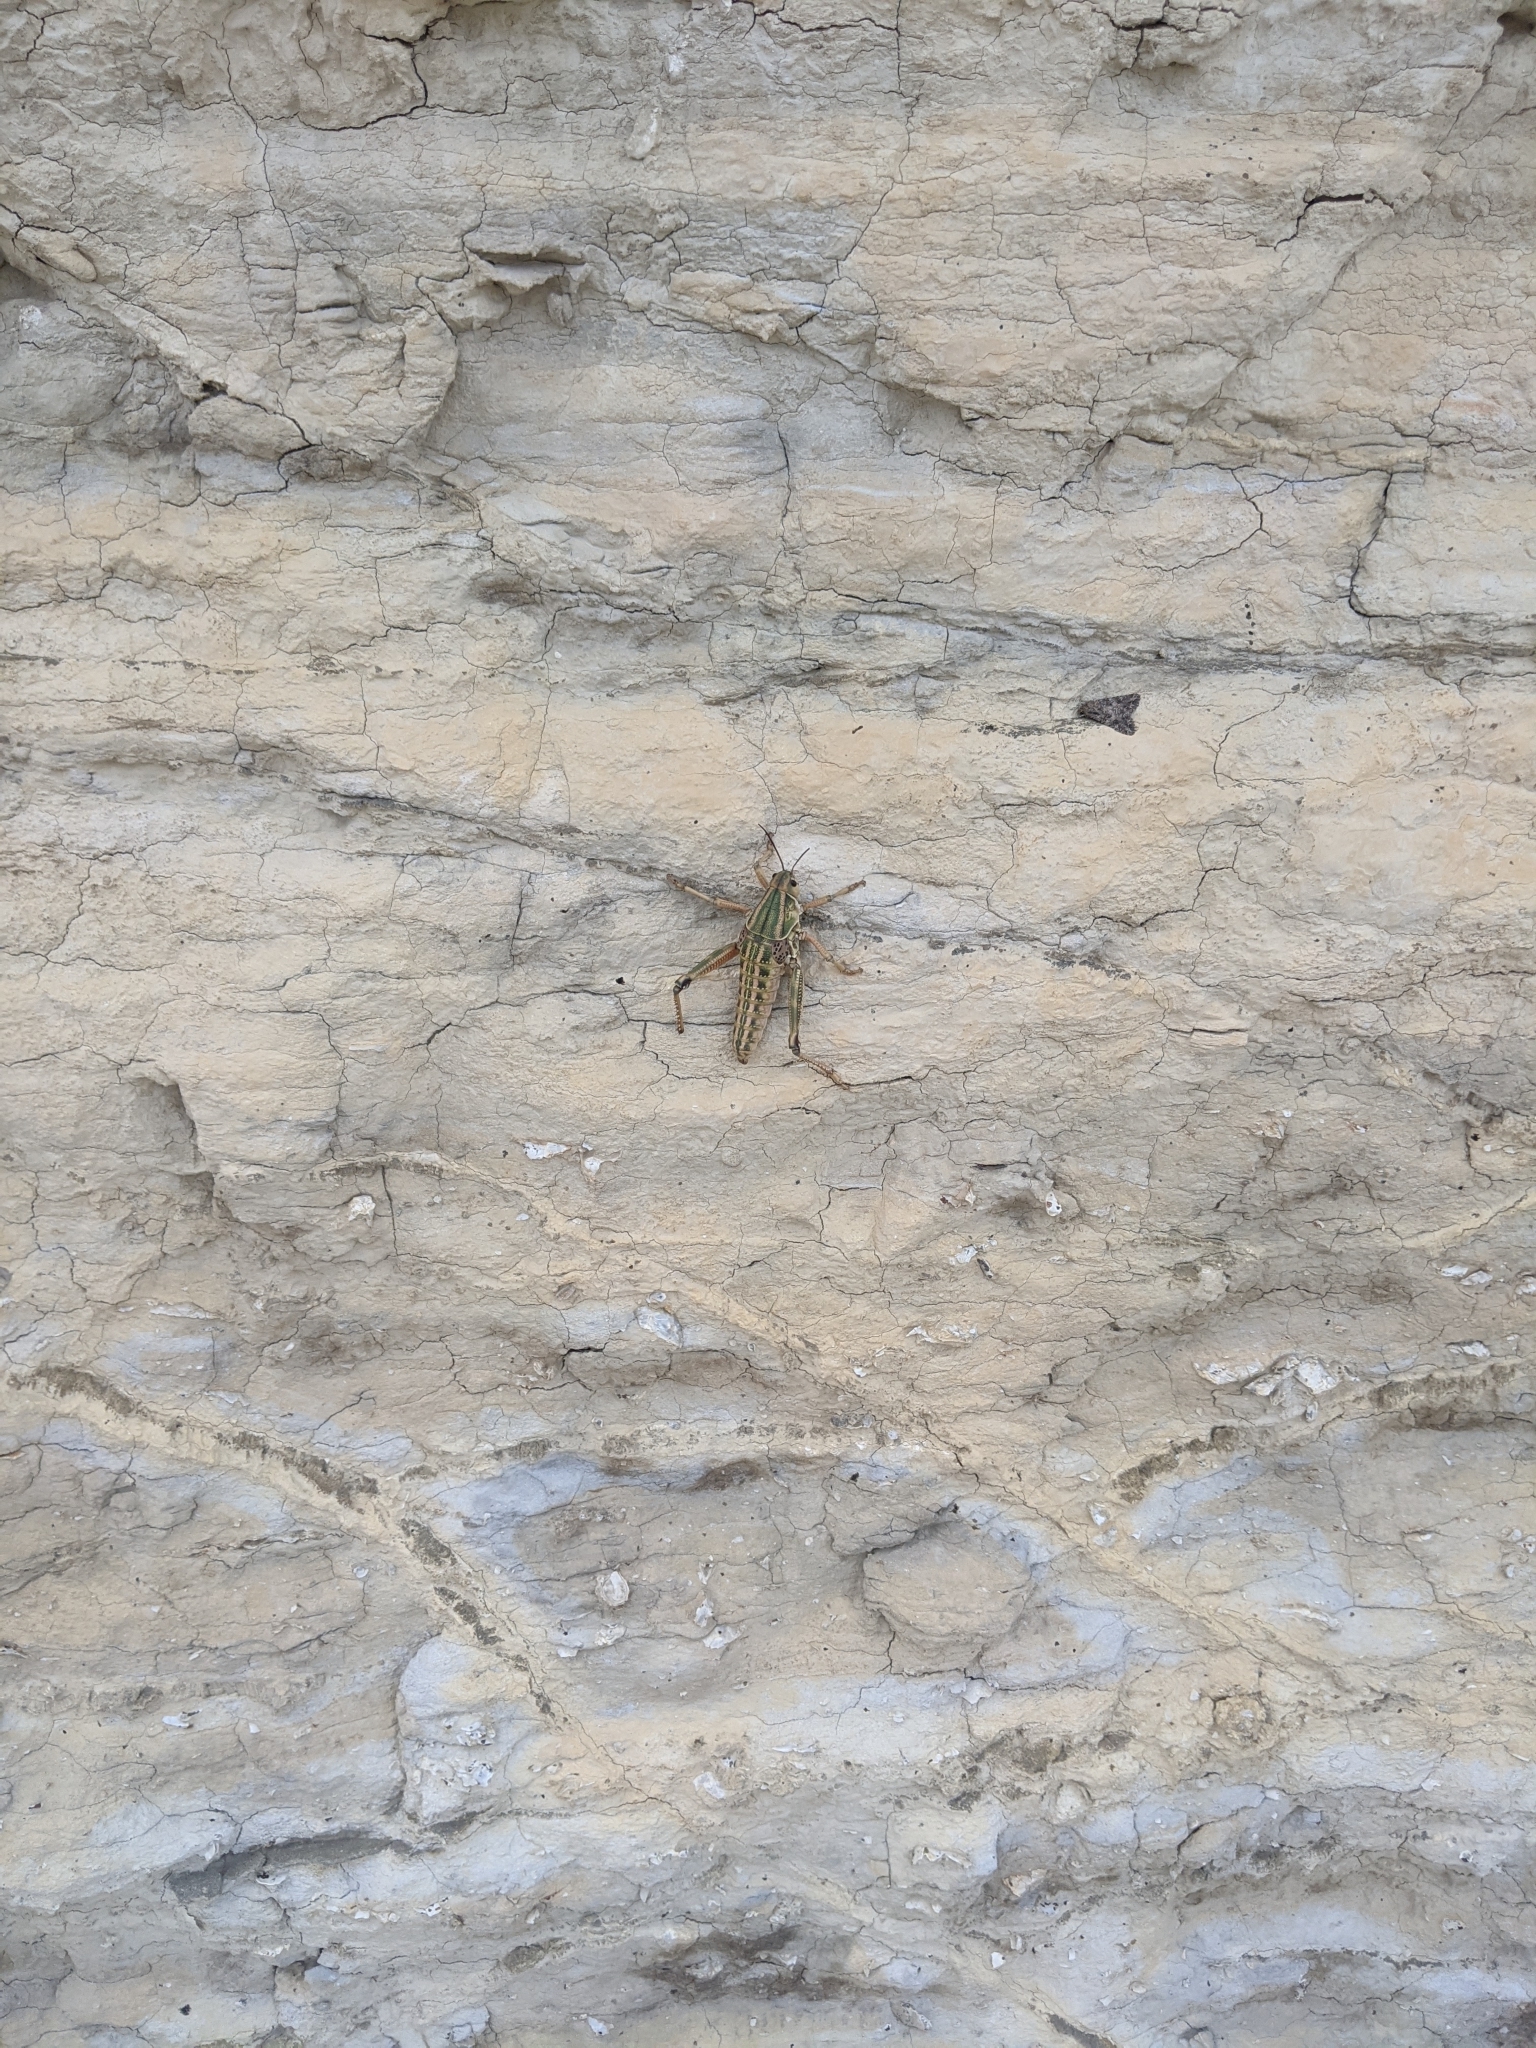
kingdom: Animalia
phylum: Arthropoda
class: Insecta
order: Orthoptera
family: Romaleidae
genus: Brachystola
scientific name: Brachystola magna
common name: Plains lubber grasshopper
